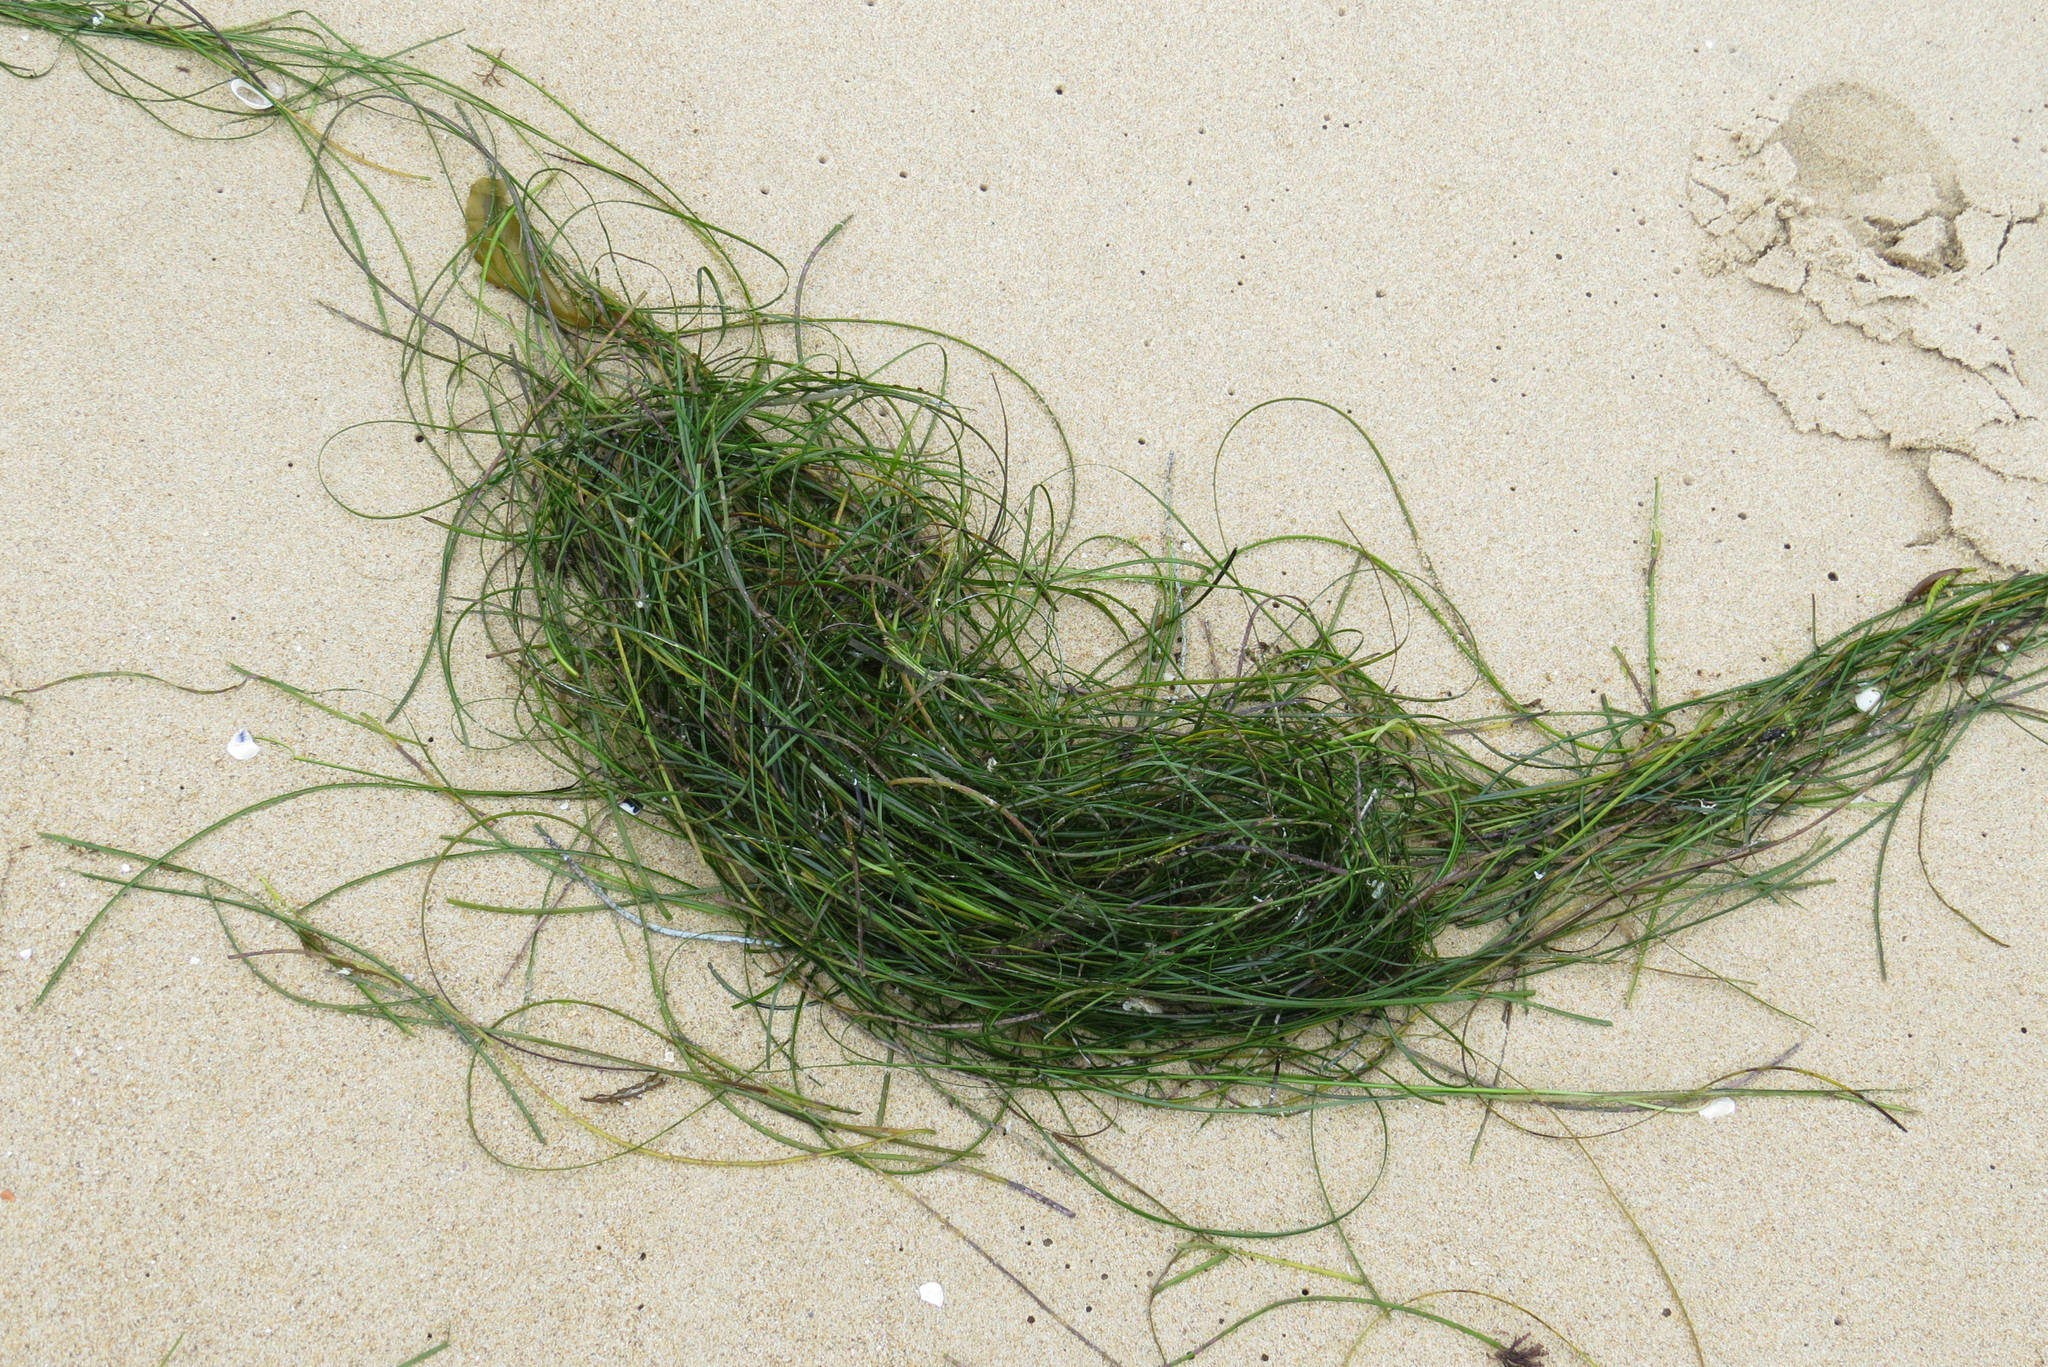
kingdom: Plantae
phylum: Tracheophyta
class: Liliopsida
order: Alismatales
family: Zosteraceae
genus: Phyllospadix
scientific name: Phyllospadix torreyi
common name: Surfgrass
